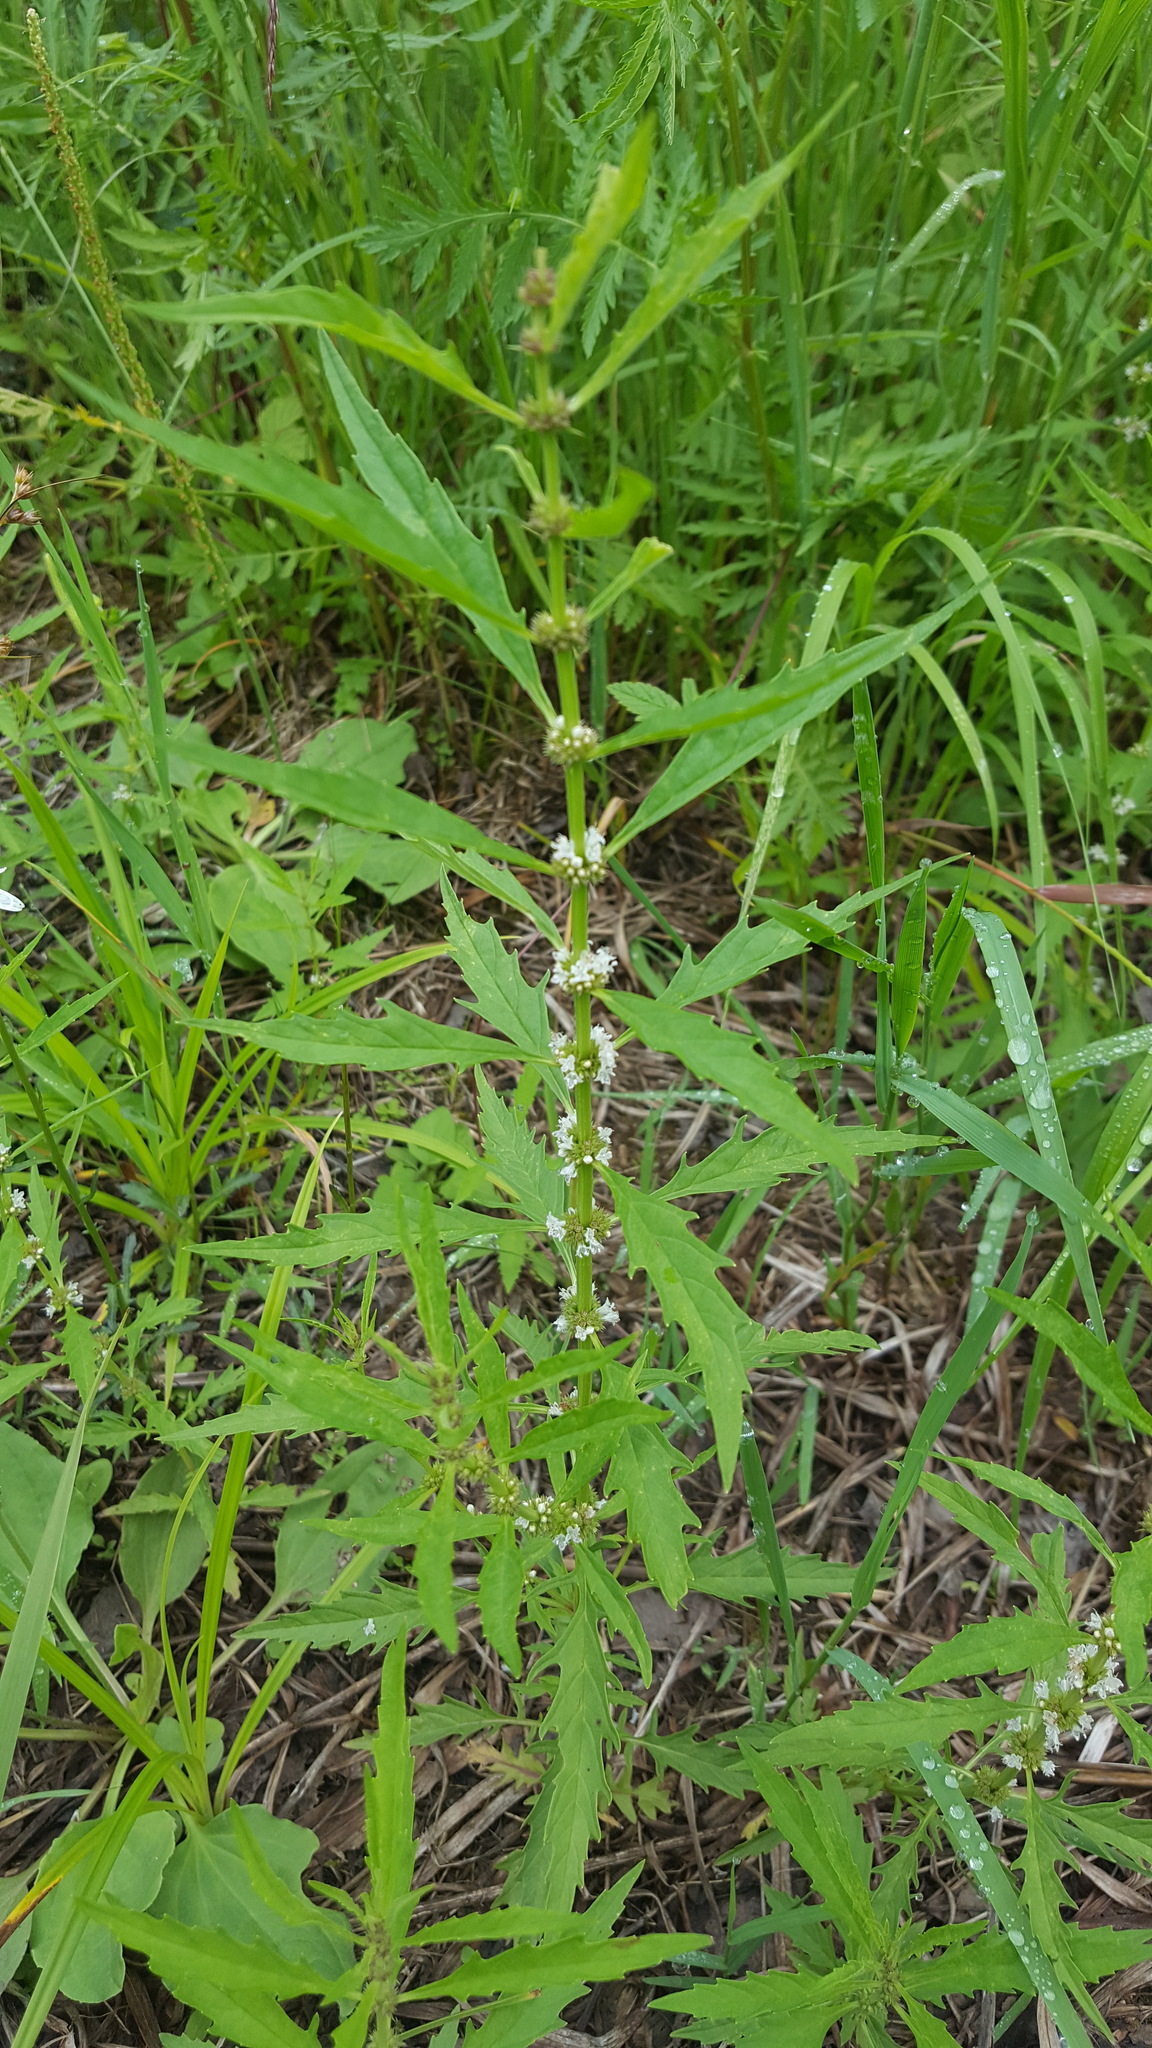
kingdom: Plantae
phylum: Tracheophyta
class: Magnoliopsida
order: Lamiales
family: Lamiaceae
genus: Lycopus
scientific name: Lycopus uniflorus
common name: Northern bugleweed
